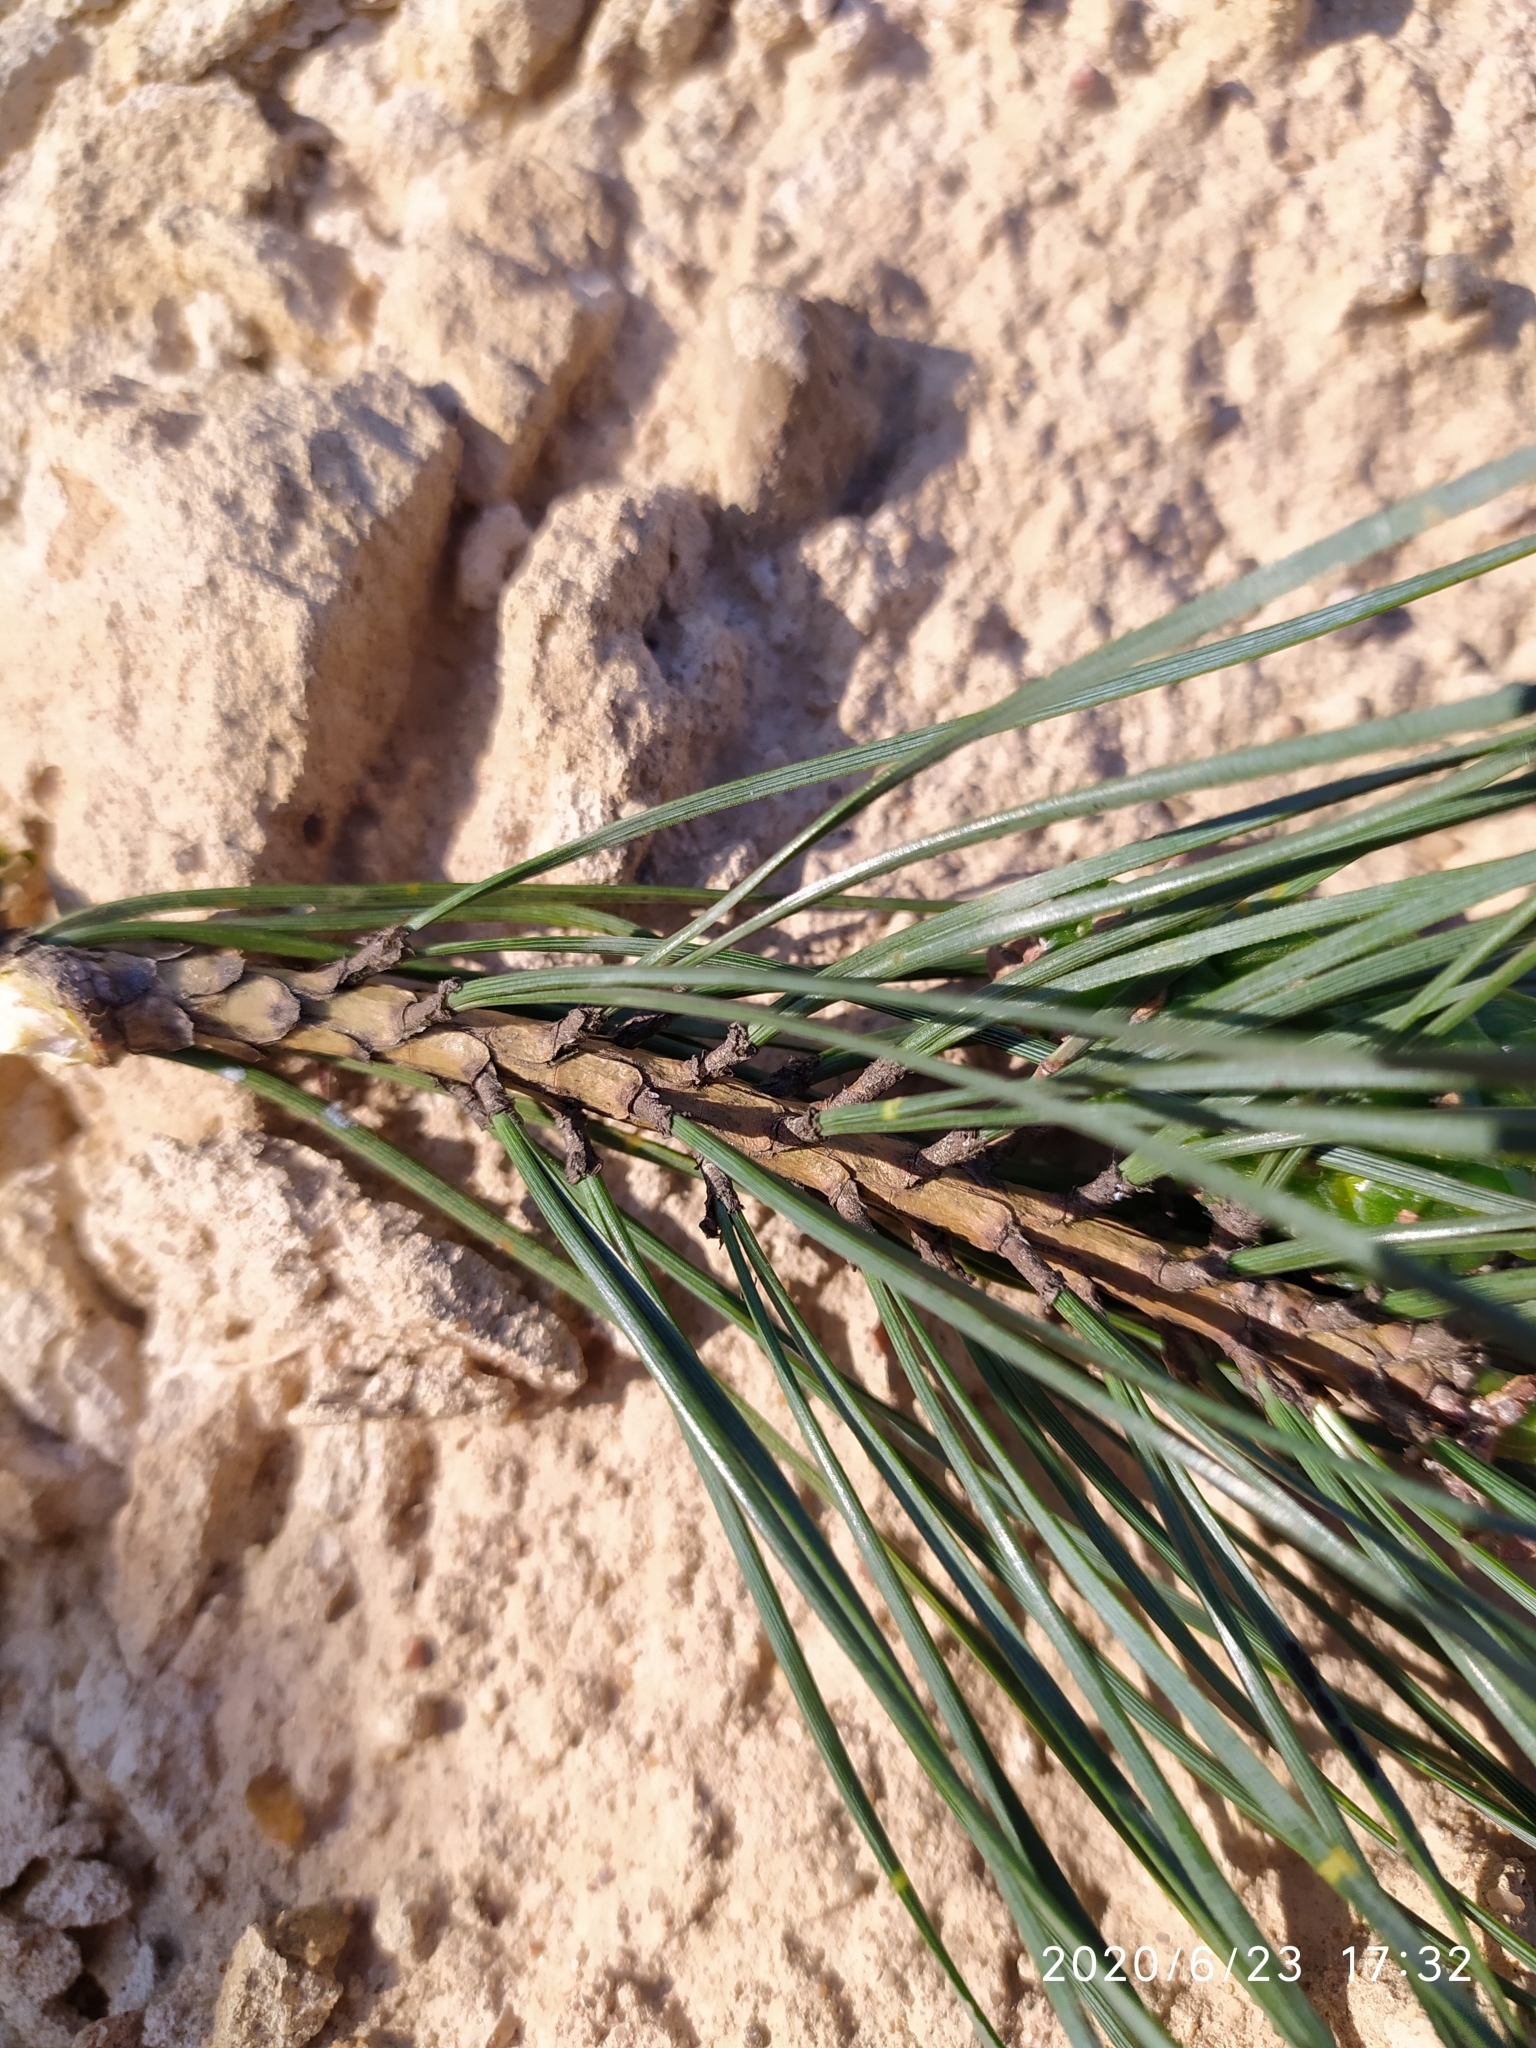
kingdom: Plantae
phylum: Tracheophyta
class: Pinopsida
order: Pinales
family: Pinaceae
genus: Pinus
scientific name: Pinus sylvestris
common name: Scots pine
